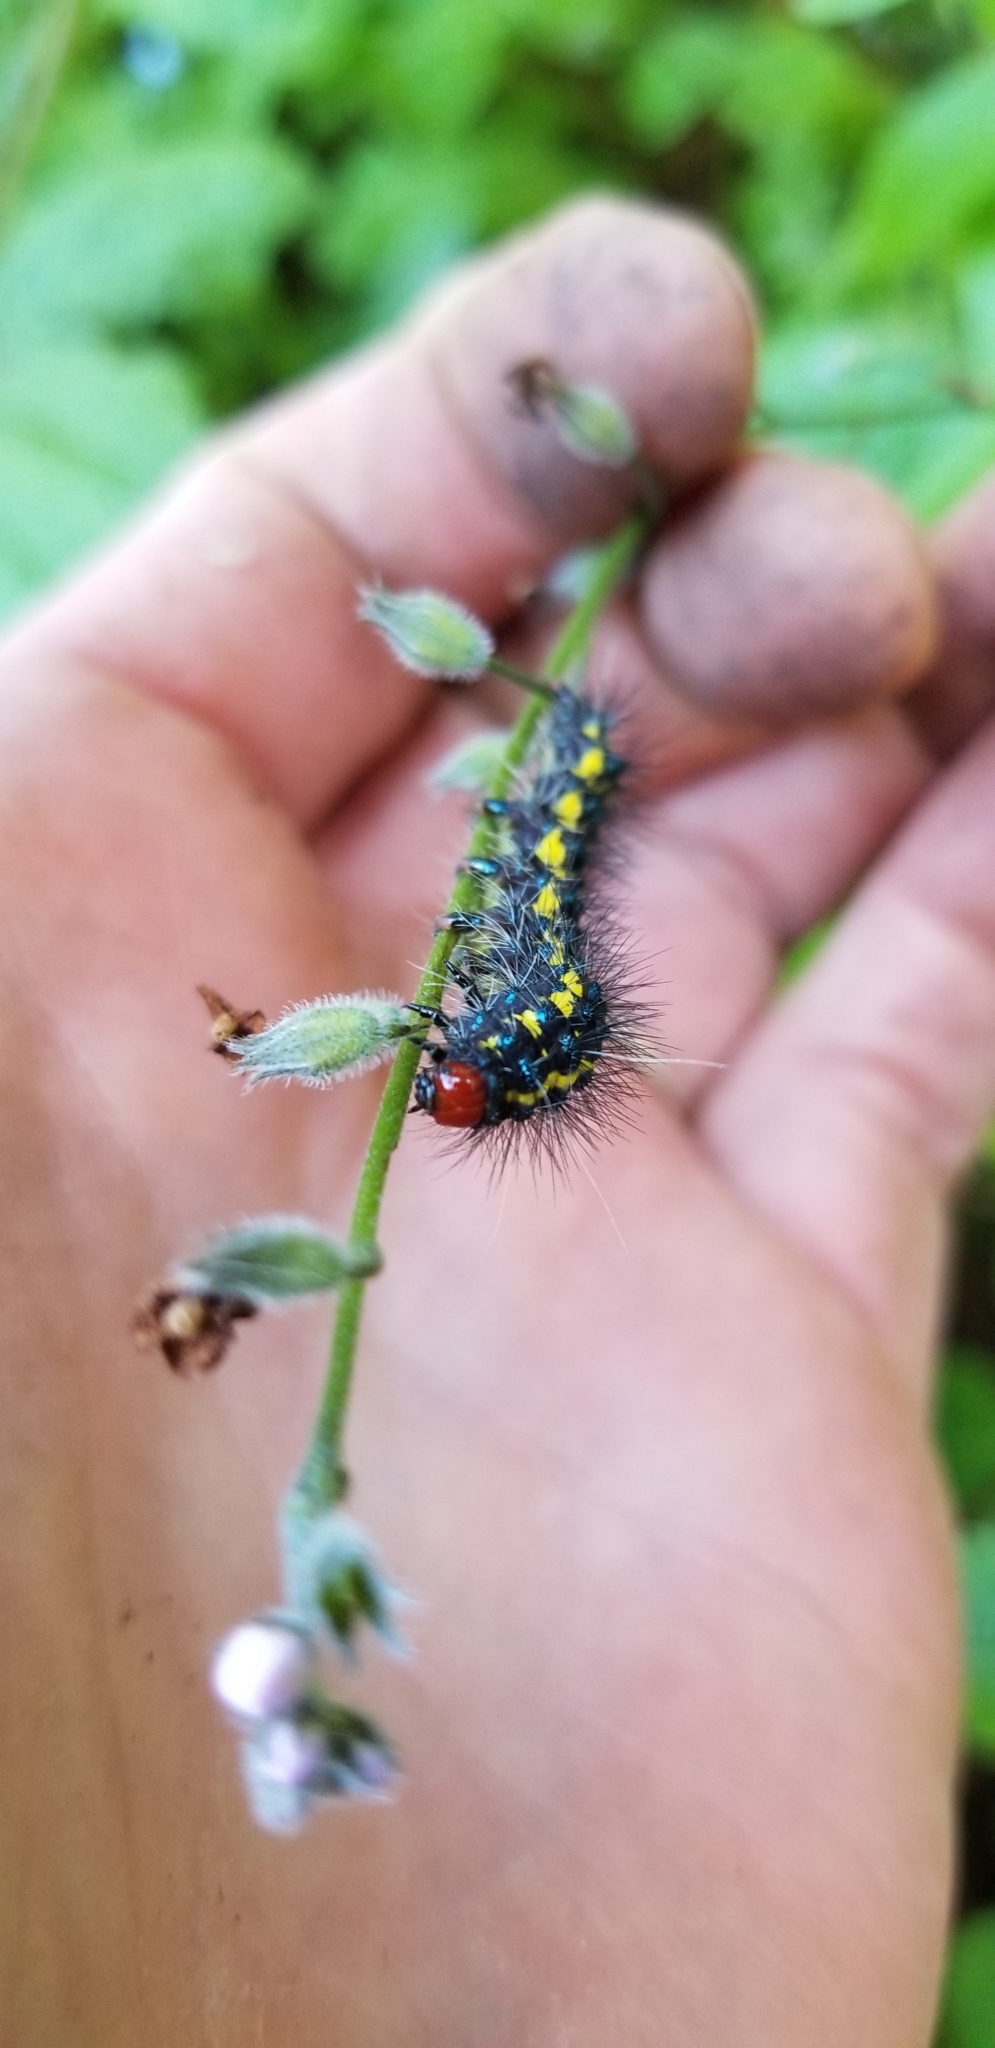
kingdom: Animalia
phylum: Arthropoda
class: Insecta
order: Lepidoptera
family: Erebidae
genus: Gnophaela
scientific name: Gnophaela latipennis
